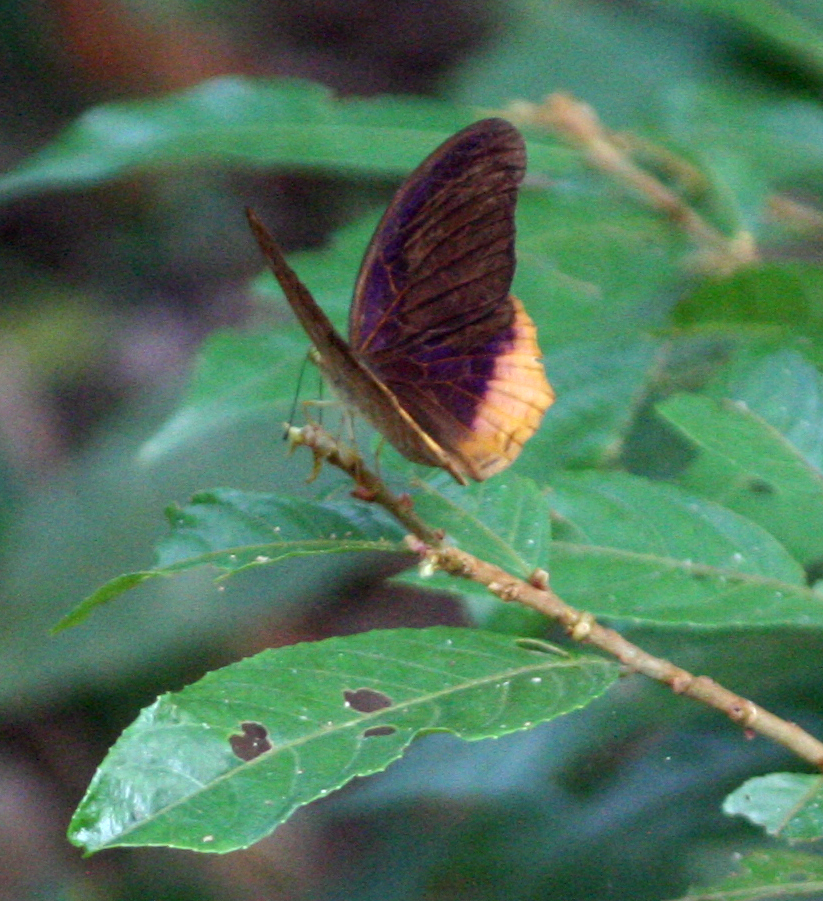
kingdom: Animalia
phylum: Arthropoda
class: Insecta
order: Lepidoptera
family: Nymphalidae
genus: Terinos
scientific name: Terinos terpander
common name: Royal assyrian
